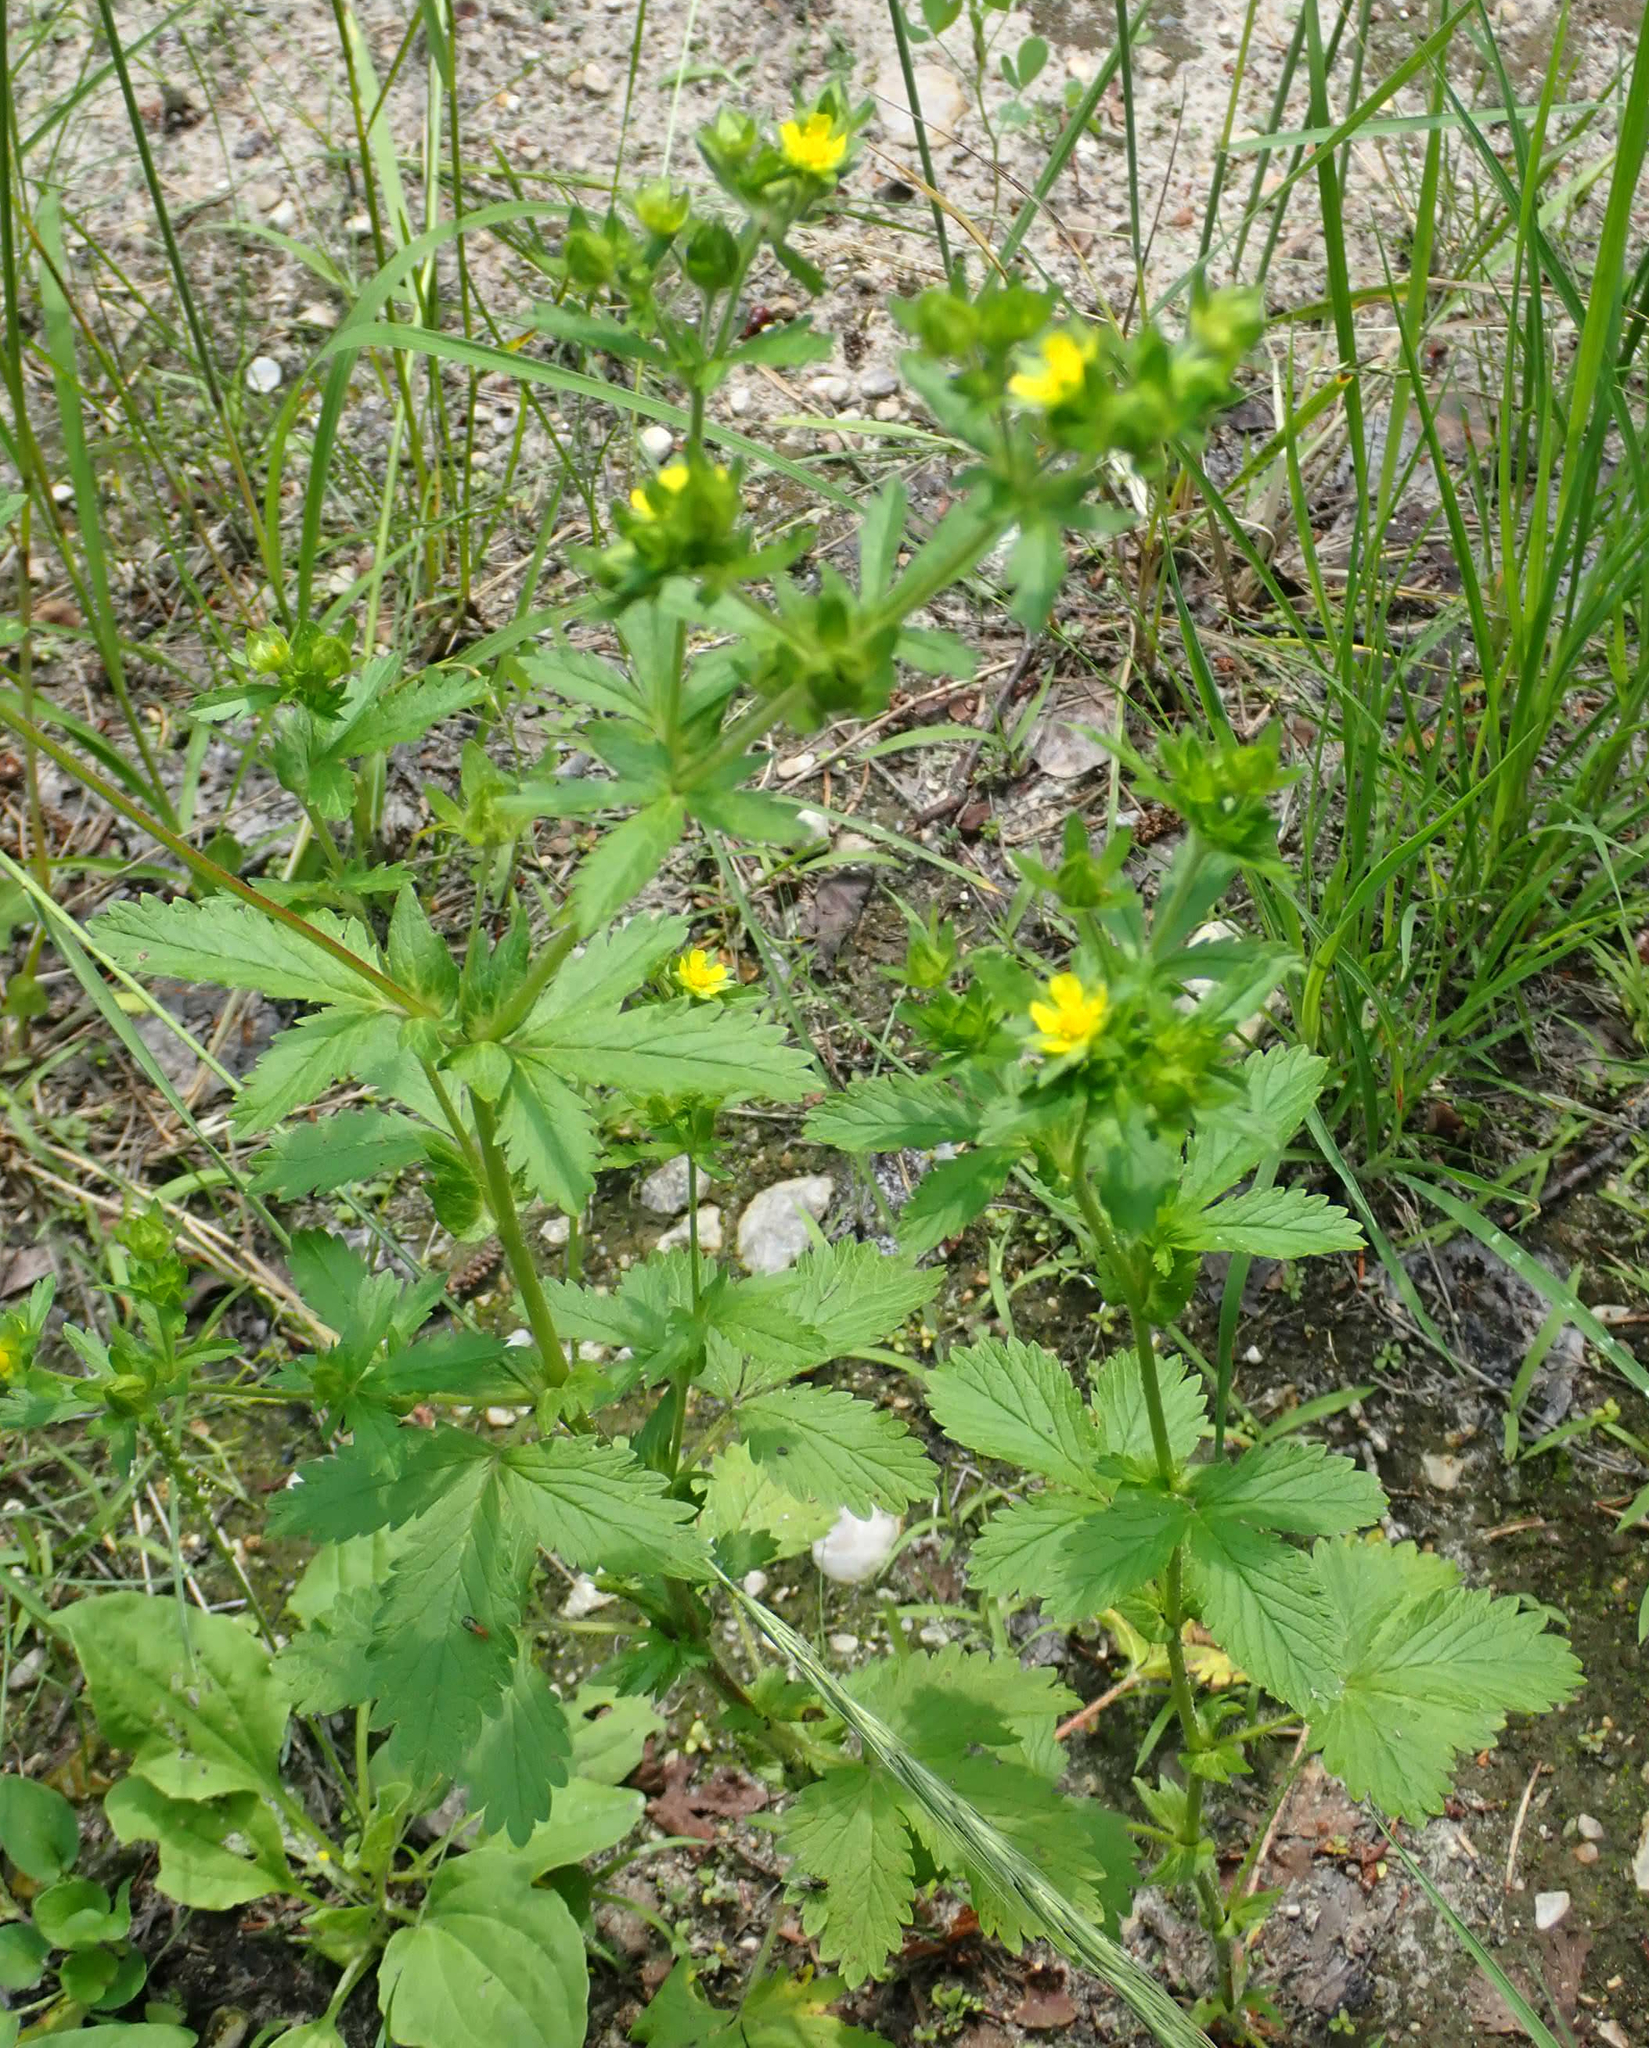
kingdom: Plantae
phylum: Tracheophyta
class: Magnoliopsida
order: Rosales
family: Rosaceae
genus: Potentilla
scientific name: Potentilla norvegica
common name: Ternate-leaved cinquefoil
